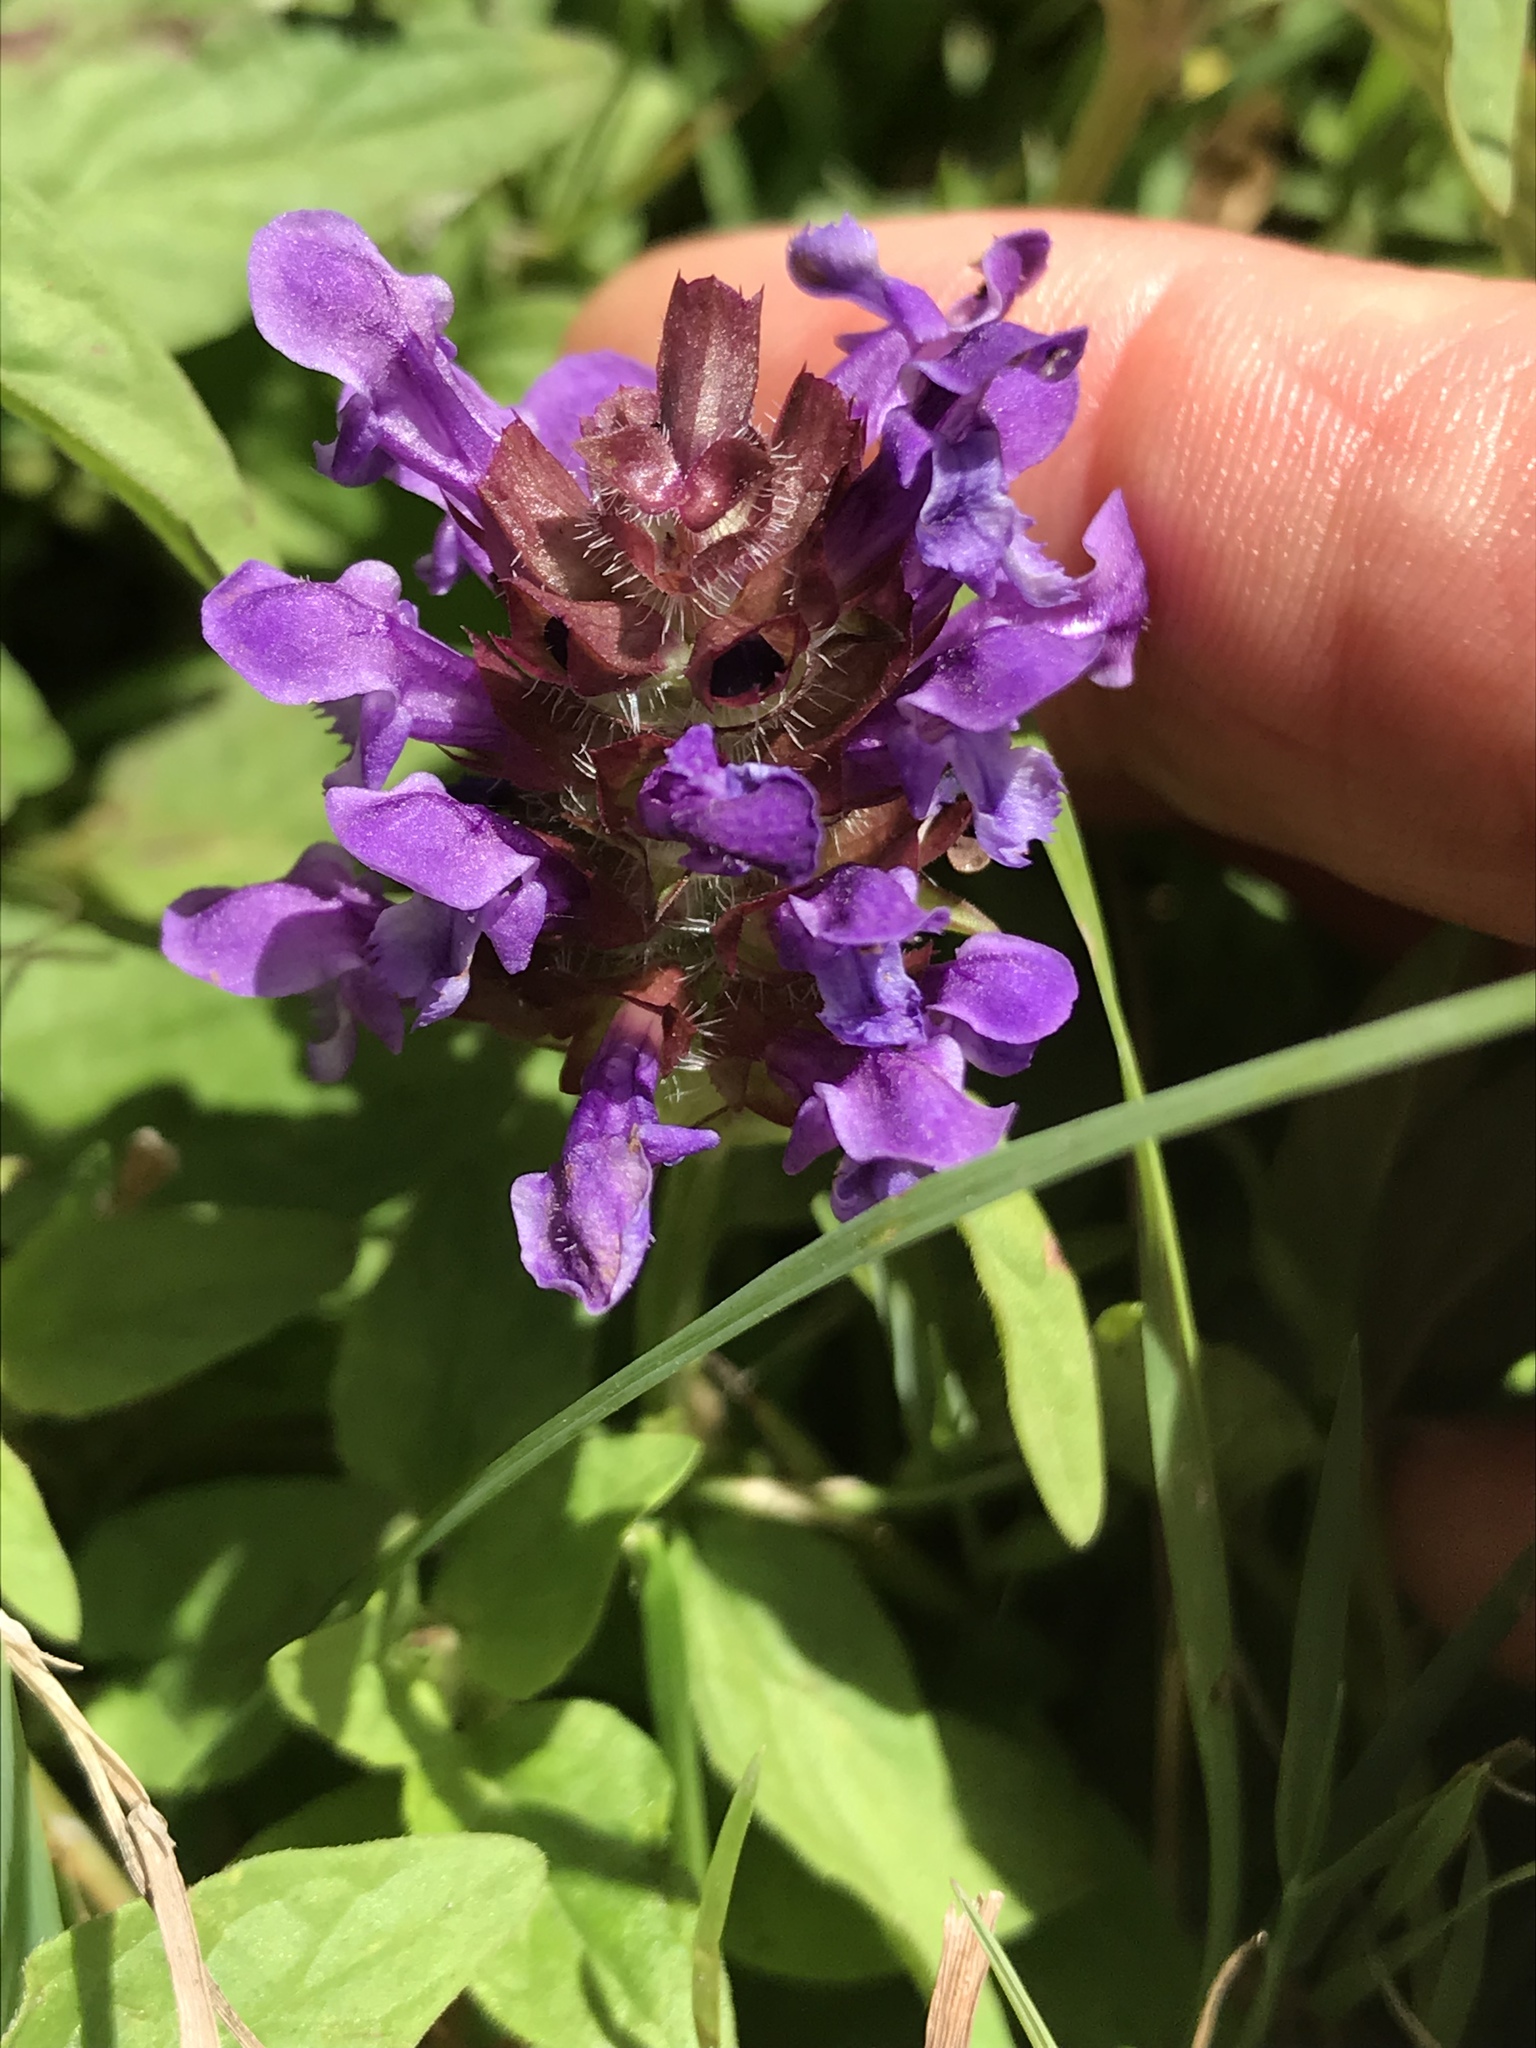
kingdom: Plantae
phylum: Tracheophyta
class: Magnoliopsida
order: Lamiales
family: Lamiaceae
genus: Prunella
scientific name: Prunella vulgaris
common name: Heal-all
